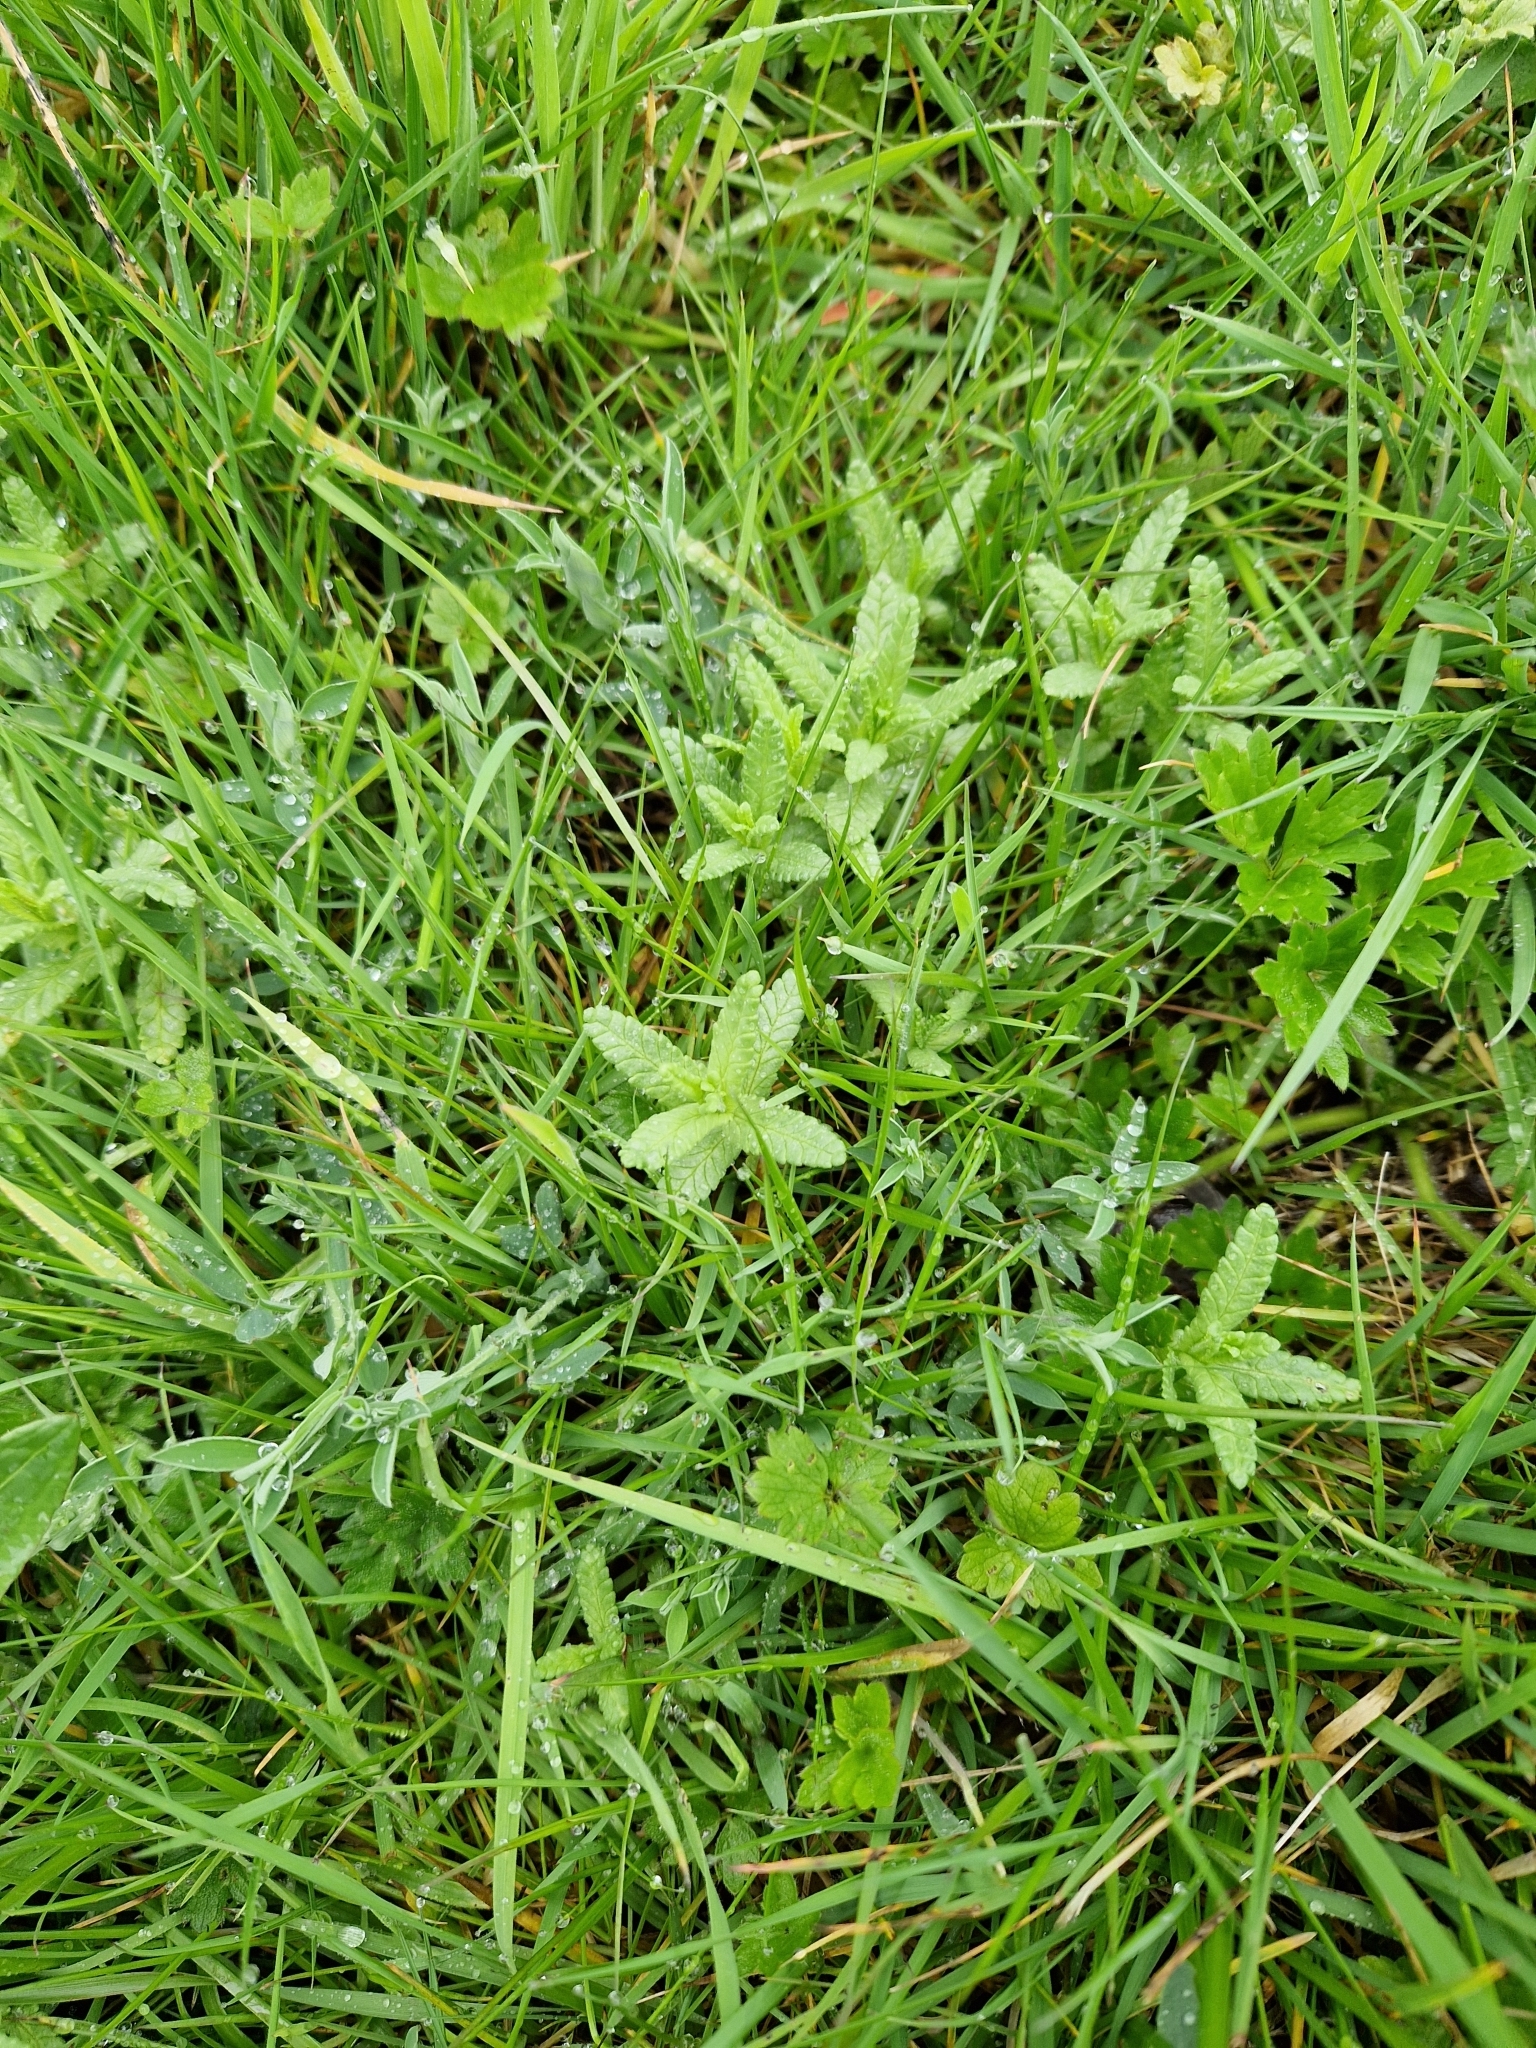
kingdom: Plantae
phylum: Tracheophyta
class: Magnoliopsida
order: Lamiales
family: Orobanchaceae
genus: Rhinanthus
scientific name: Rhinanthus minor
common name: Yellow-rattle
